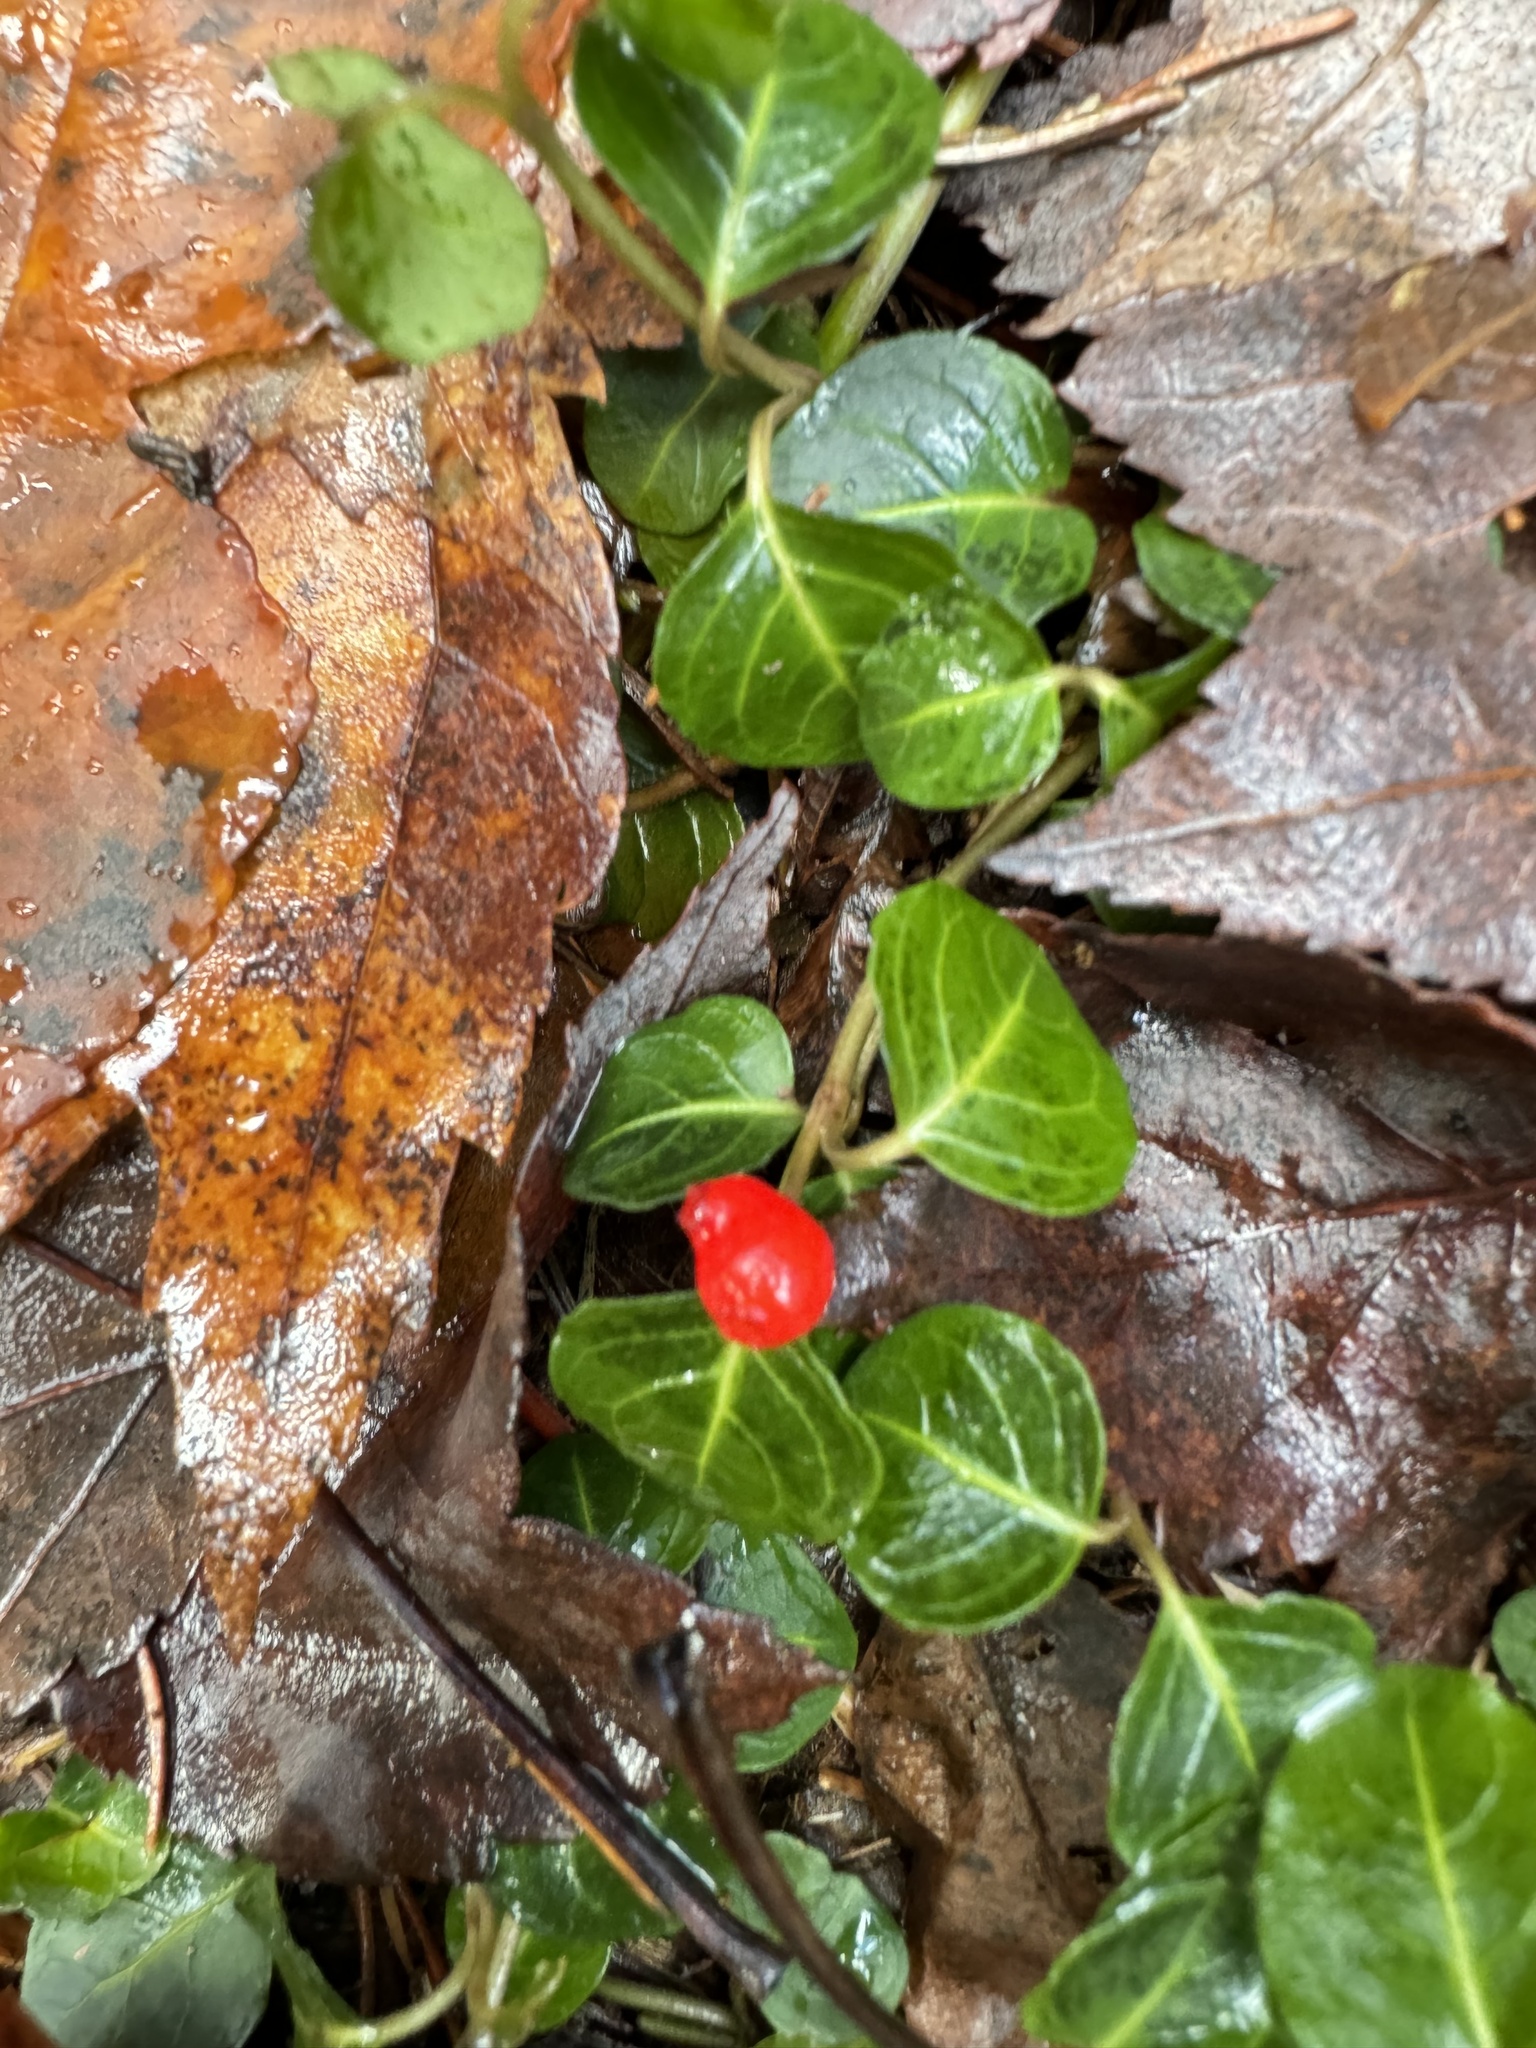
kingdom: Plantae
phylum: Tracheophyta
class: Magnoliopsida
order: Gentianales
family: Rubiaceae
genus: Mitchella
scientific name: Mitchella repens
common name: Partridge-berry
